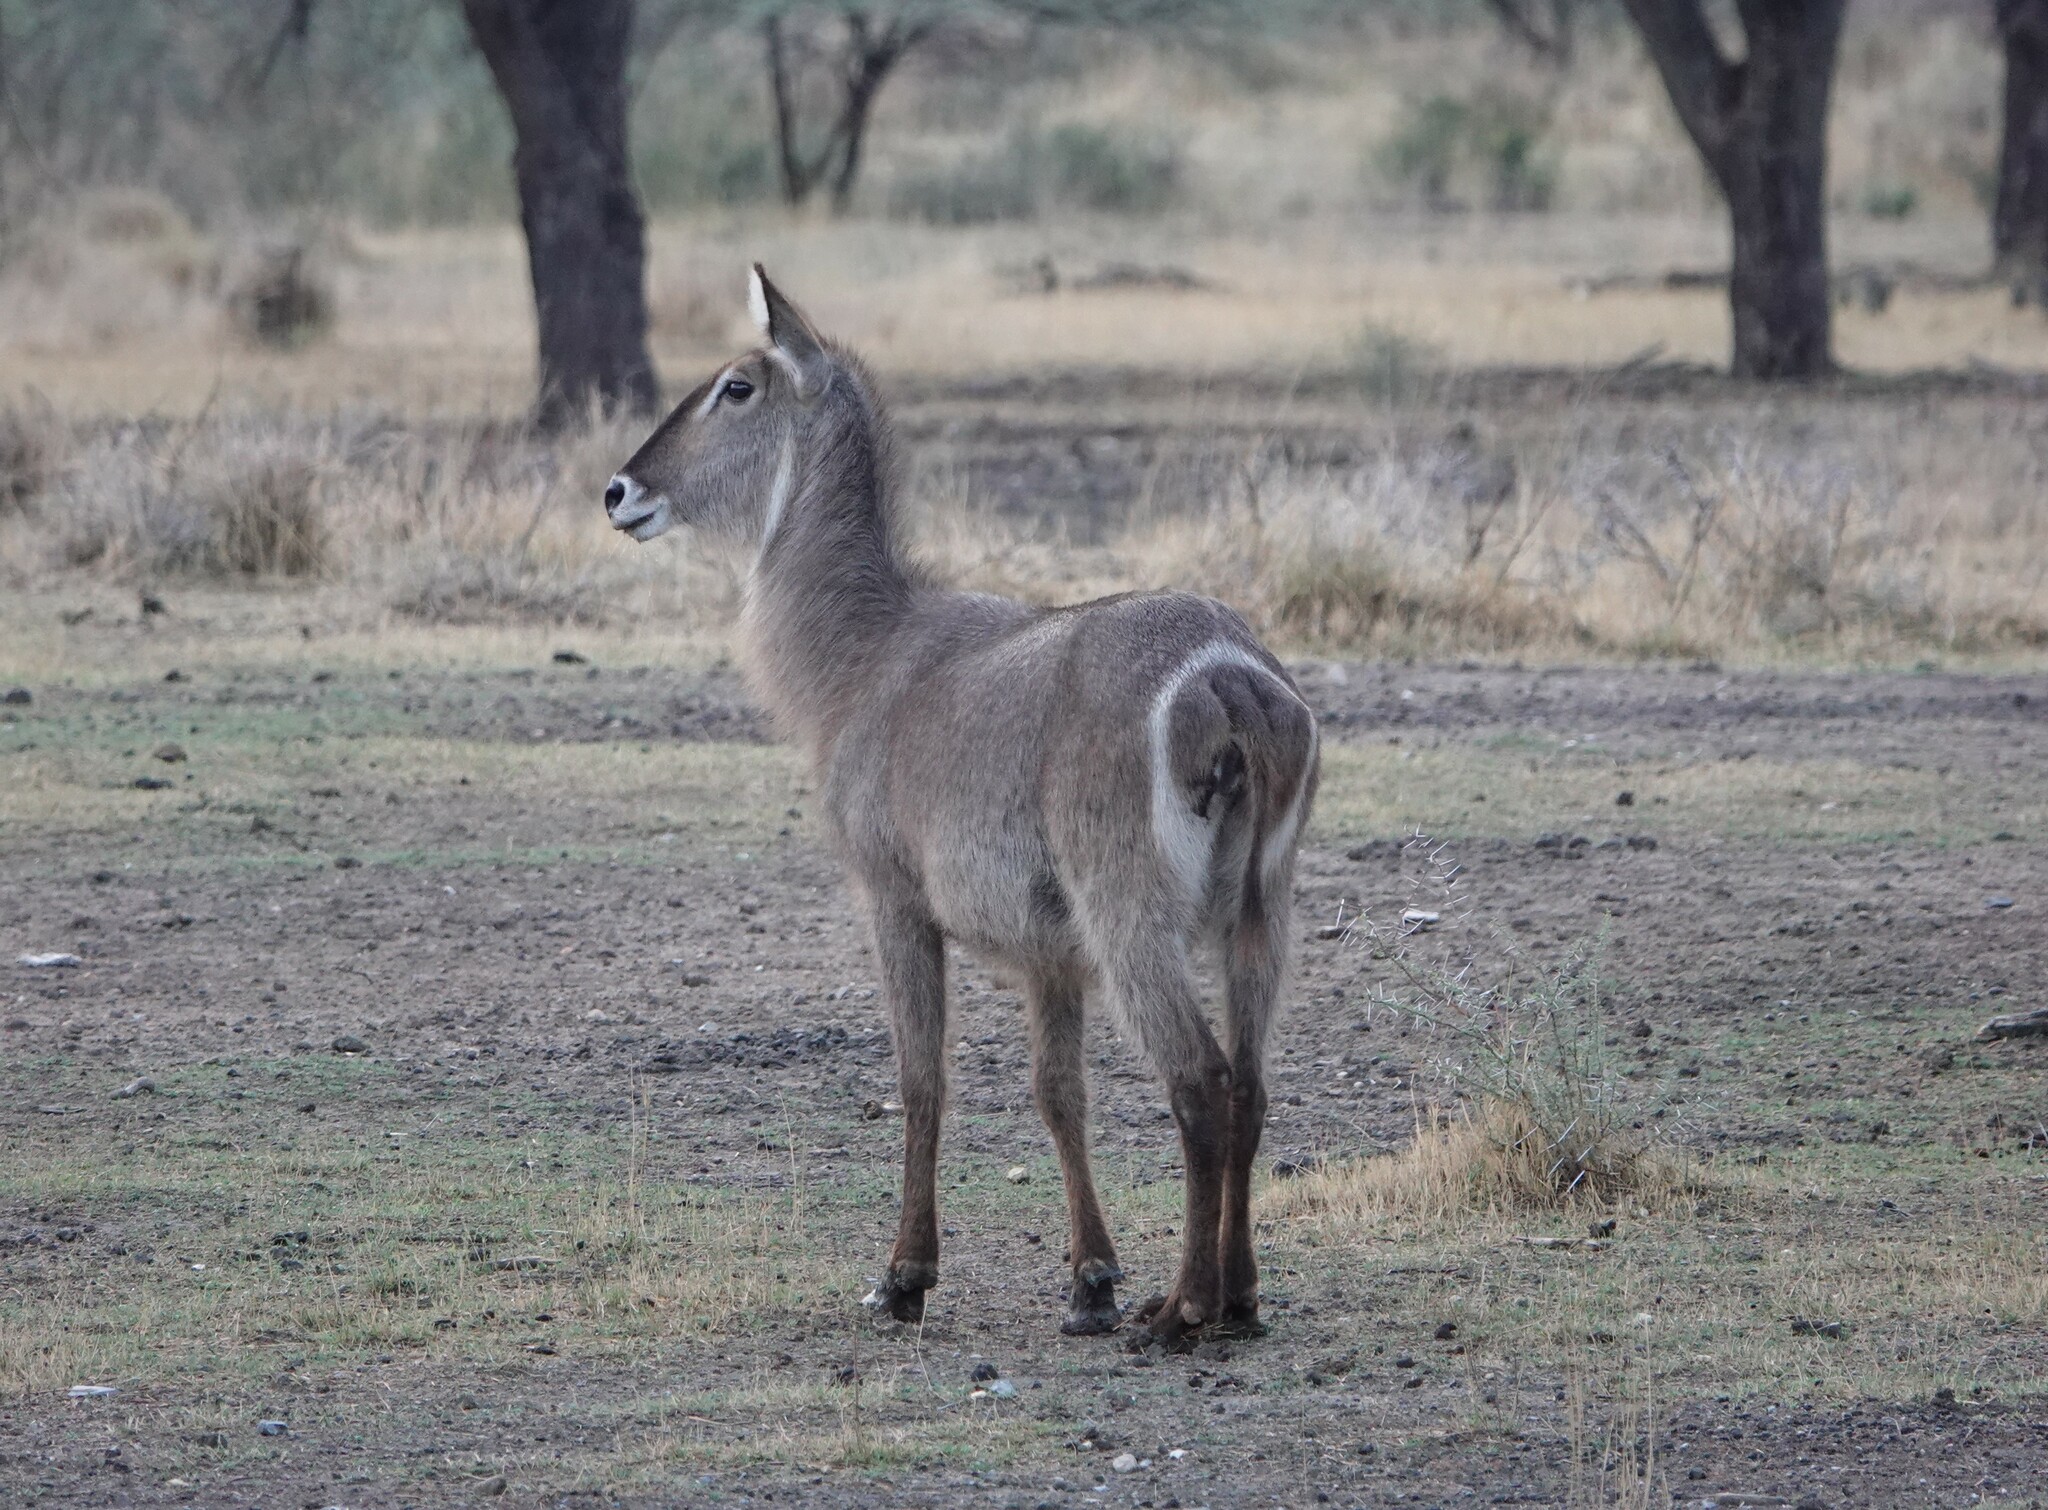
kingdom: Animalia
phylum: Chordata
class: Mammalia
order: Artiodactyla
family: Bovidae
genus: Kobus
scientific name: Kobus ellipsiprymnus
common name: Waterbuck
